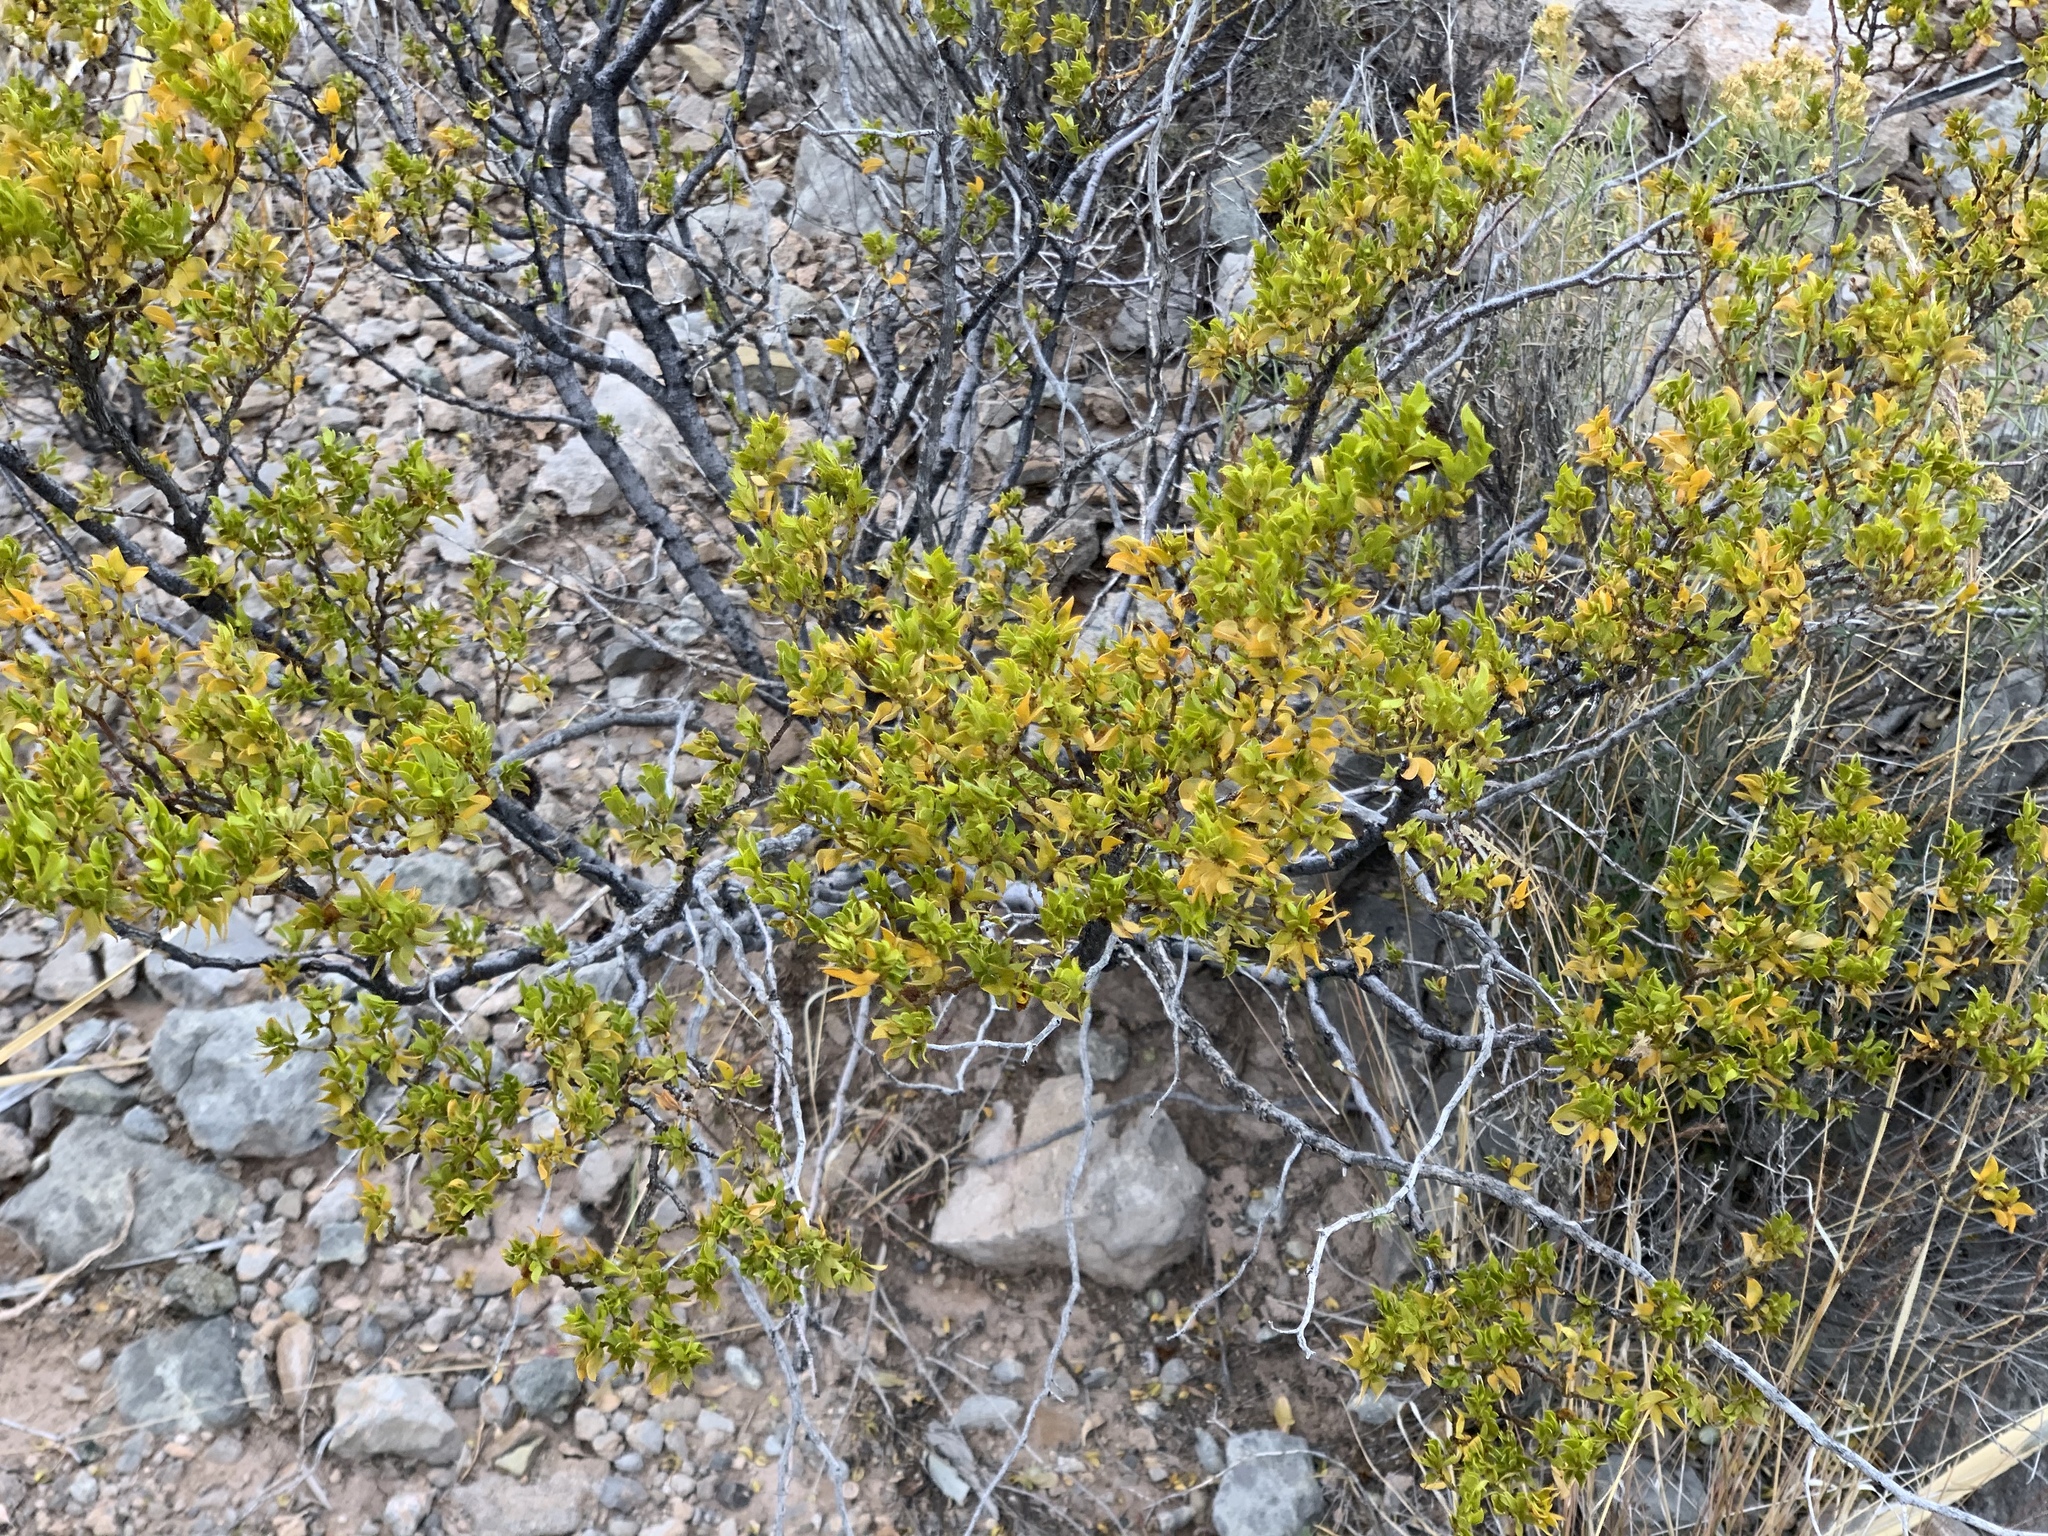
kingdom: Plantae
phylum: Tracheophyta
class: Magnoliopsida
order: Zygophyllales
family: Zygophyllaceae
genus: Larrea
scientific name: Larrea tridentata
